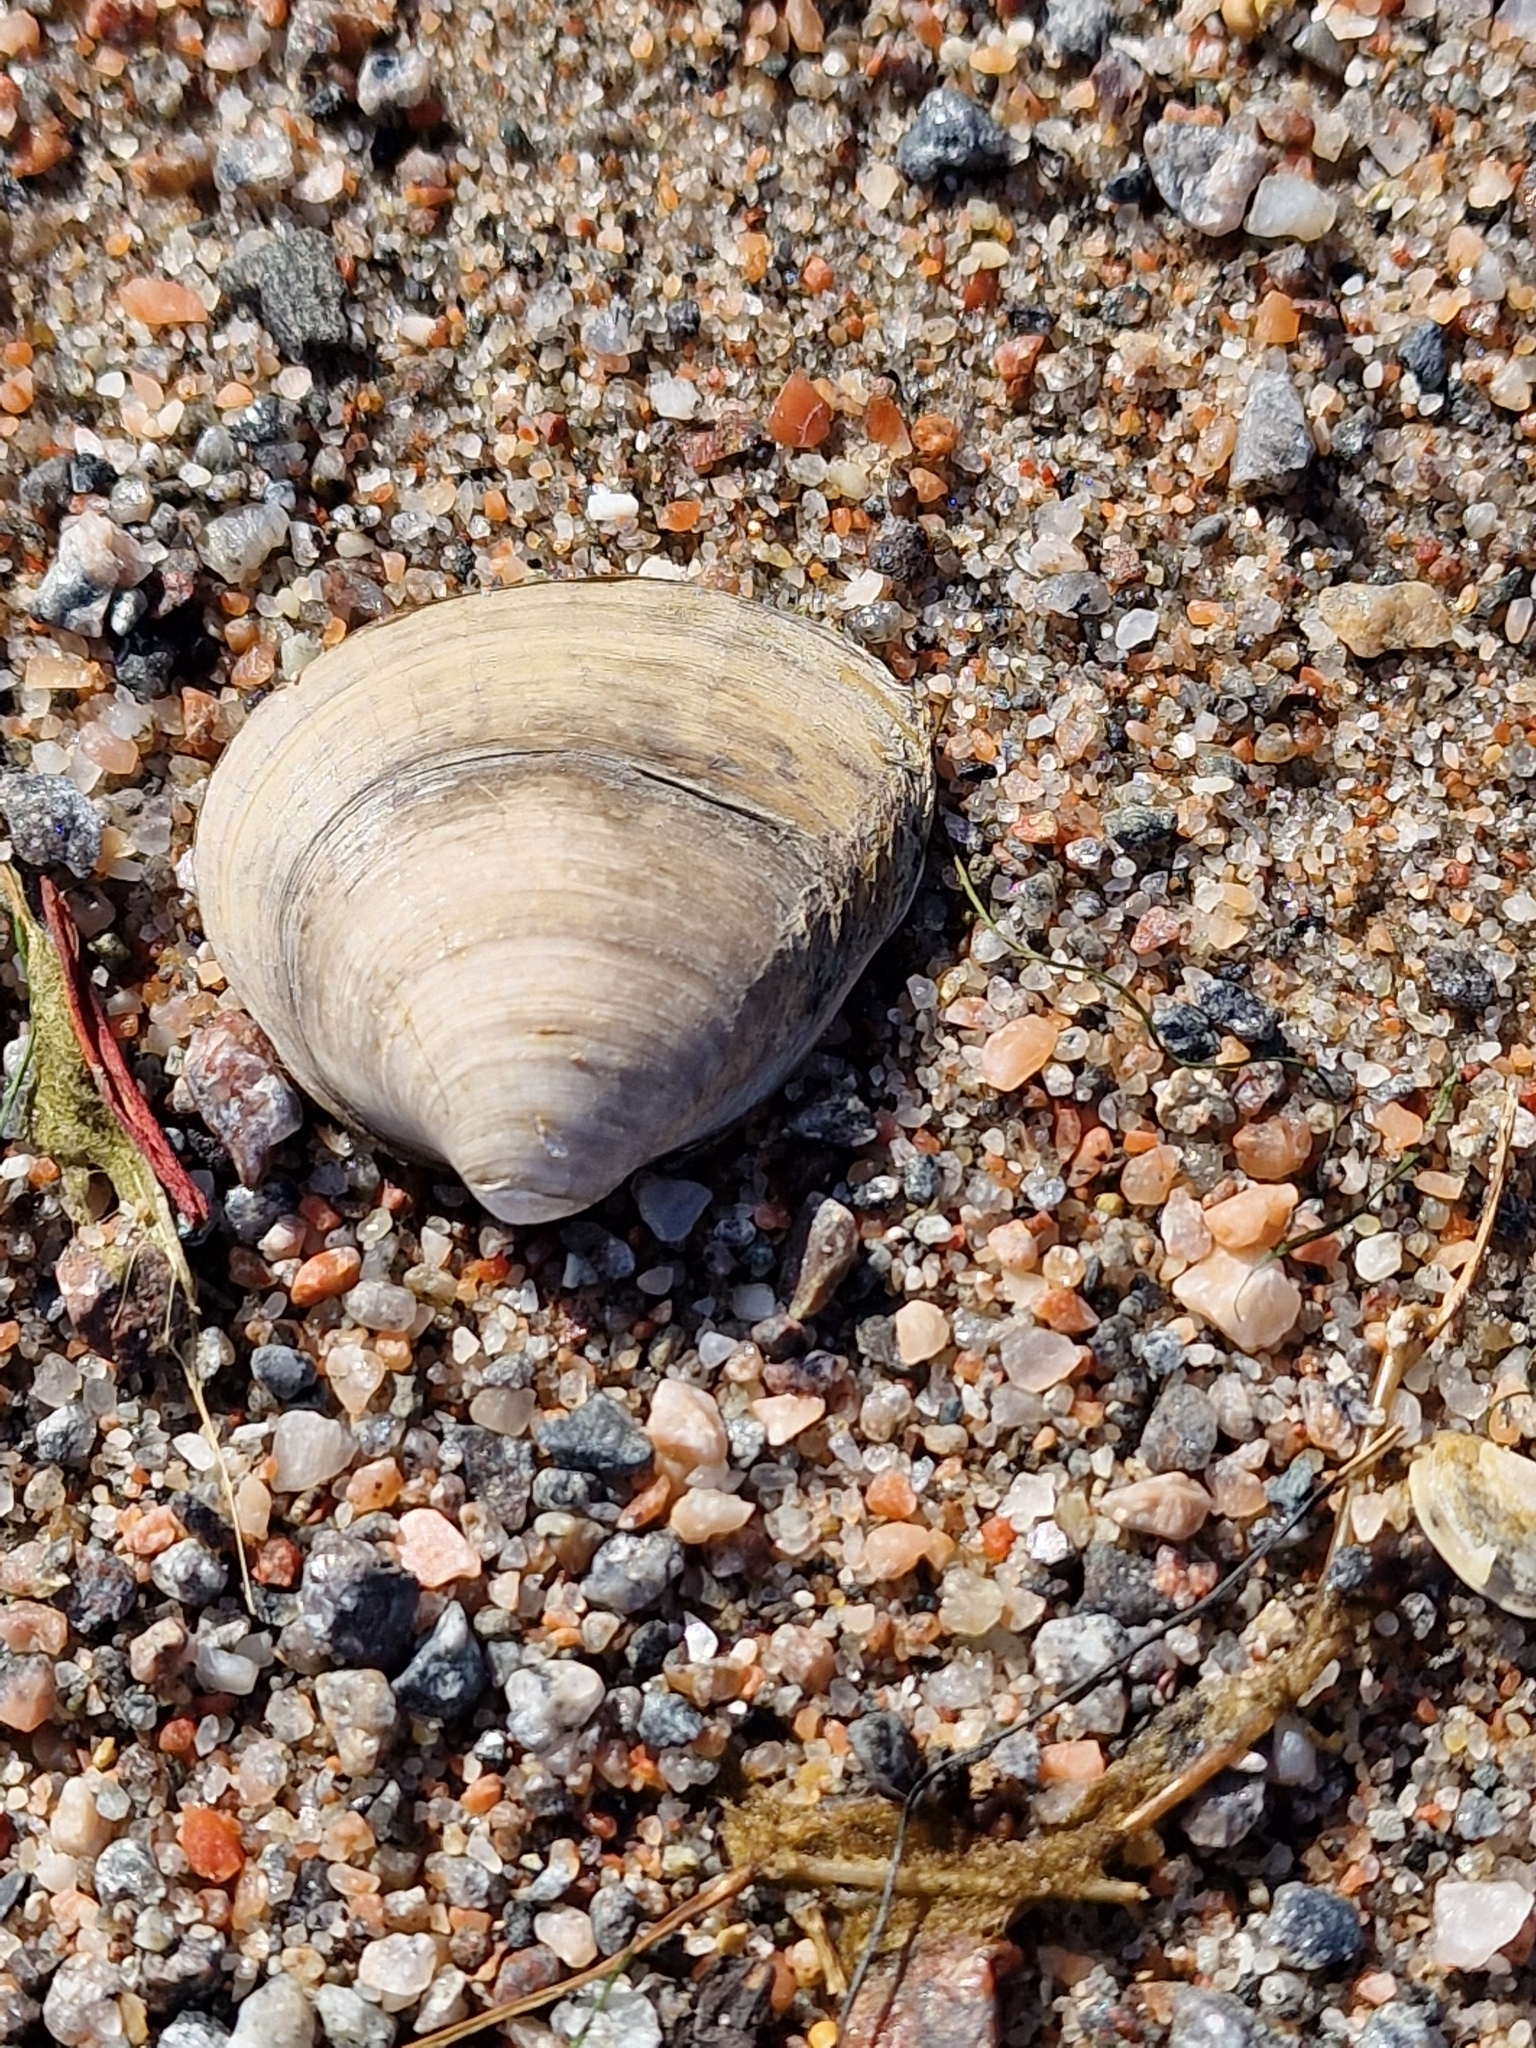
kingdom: Animalia
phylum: Mollusca
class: Bivalvia
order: Venerida
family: Mactridae
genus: Rangia
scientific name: Rangia cuneata
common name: Atlantic rangia
